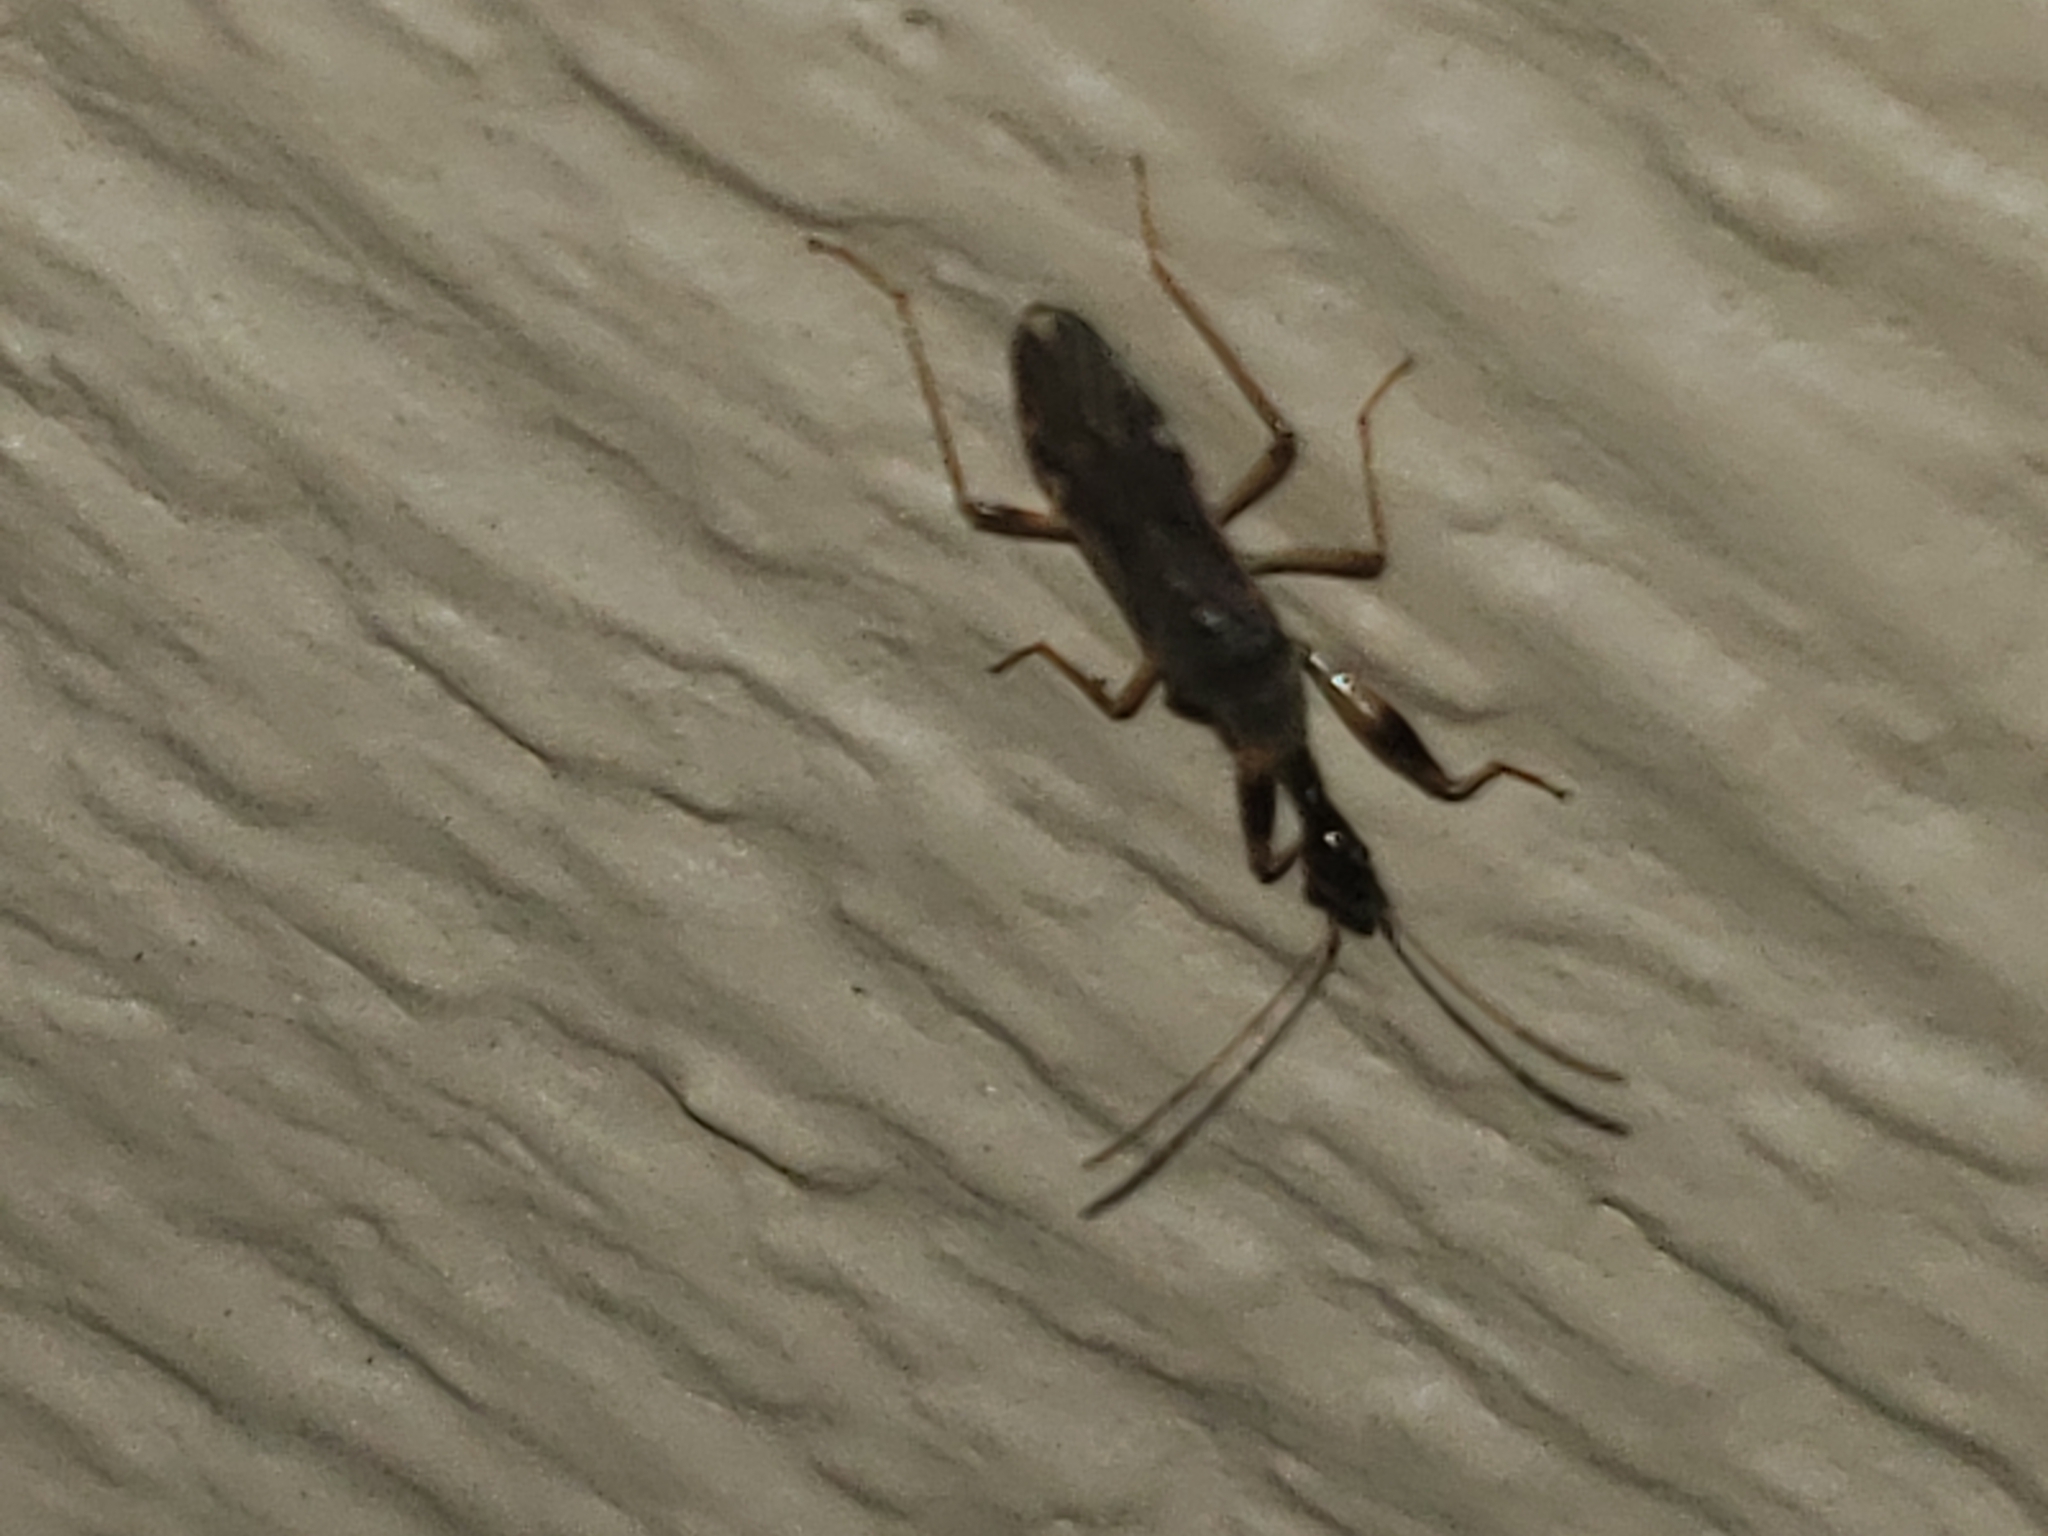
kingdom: Animalia
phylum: Arthropoda
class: Insecta
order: Hemiptera
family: Rhyparochromidae
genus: Myodocha
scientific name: Myodocha serripes
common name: Long-necked seed bug
